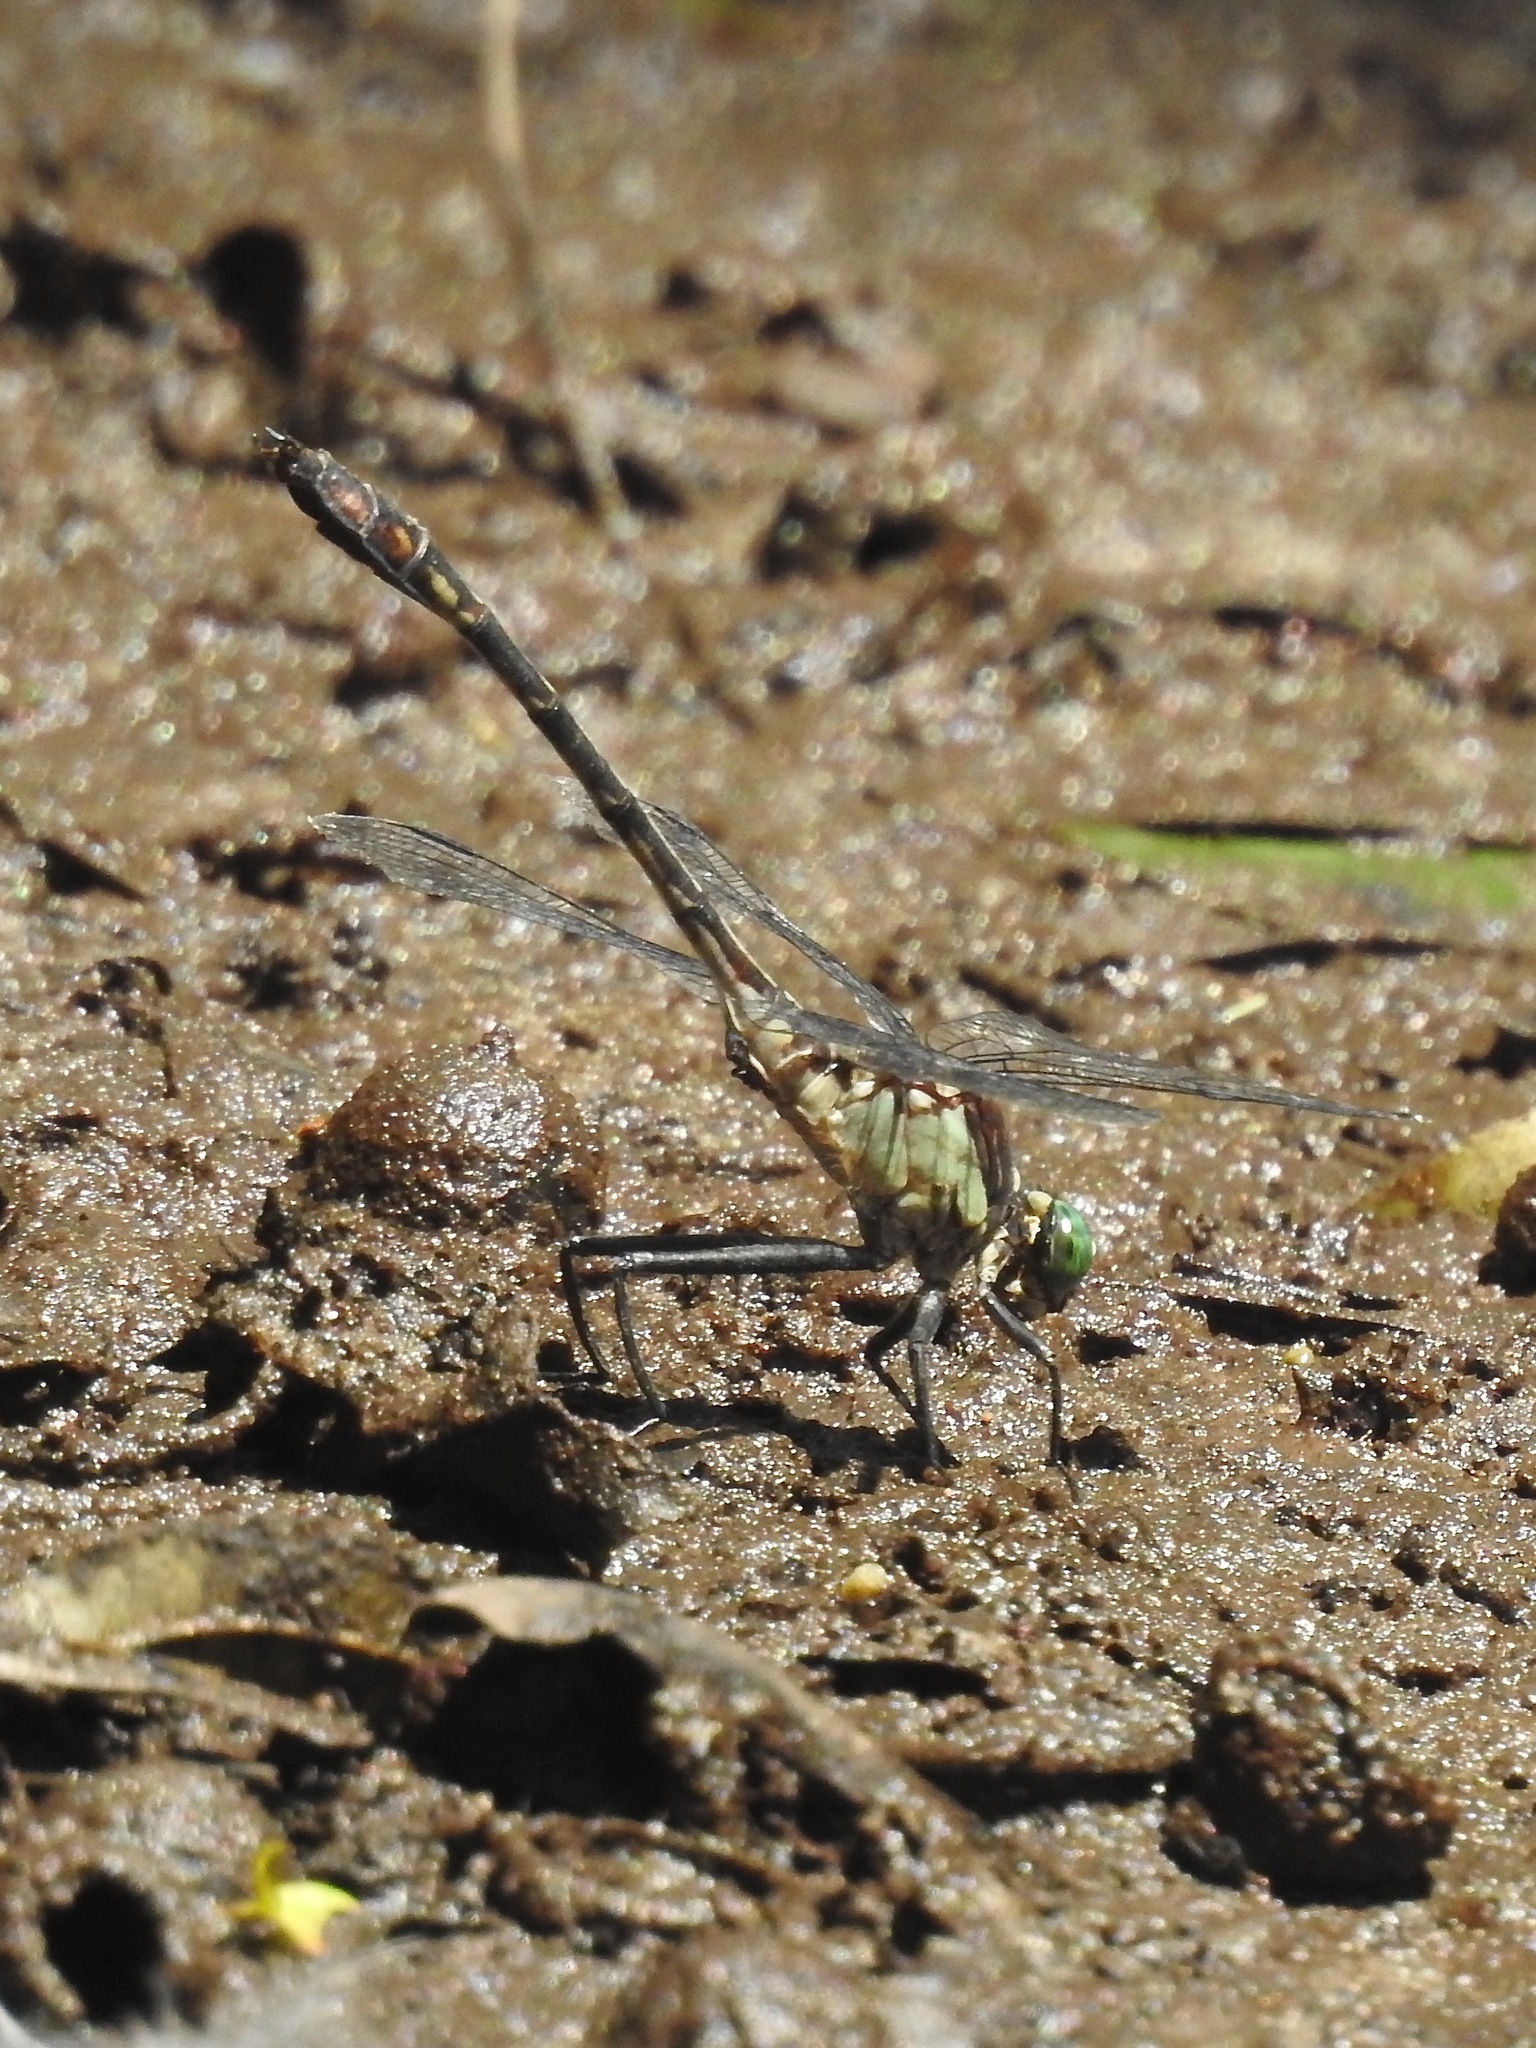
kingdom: Animalia
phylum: Arthropoda
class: Insecta
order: Odonata
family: Gomphidae
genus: Dromogomphus
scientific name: Dromogomphus spinosus
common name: Black-shouldered spinyleg
